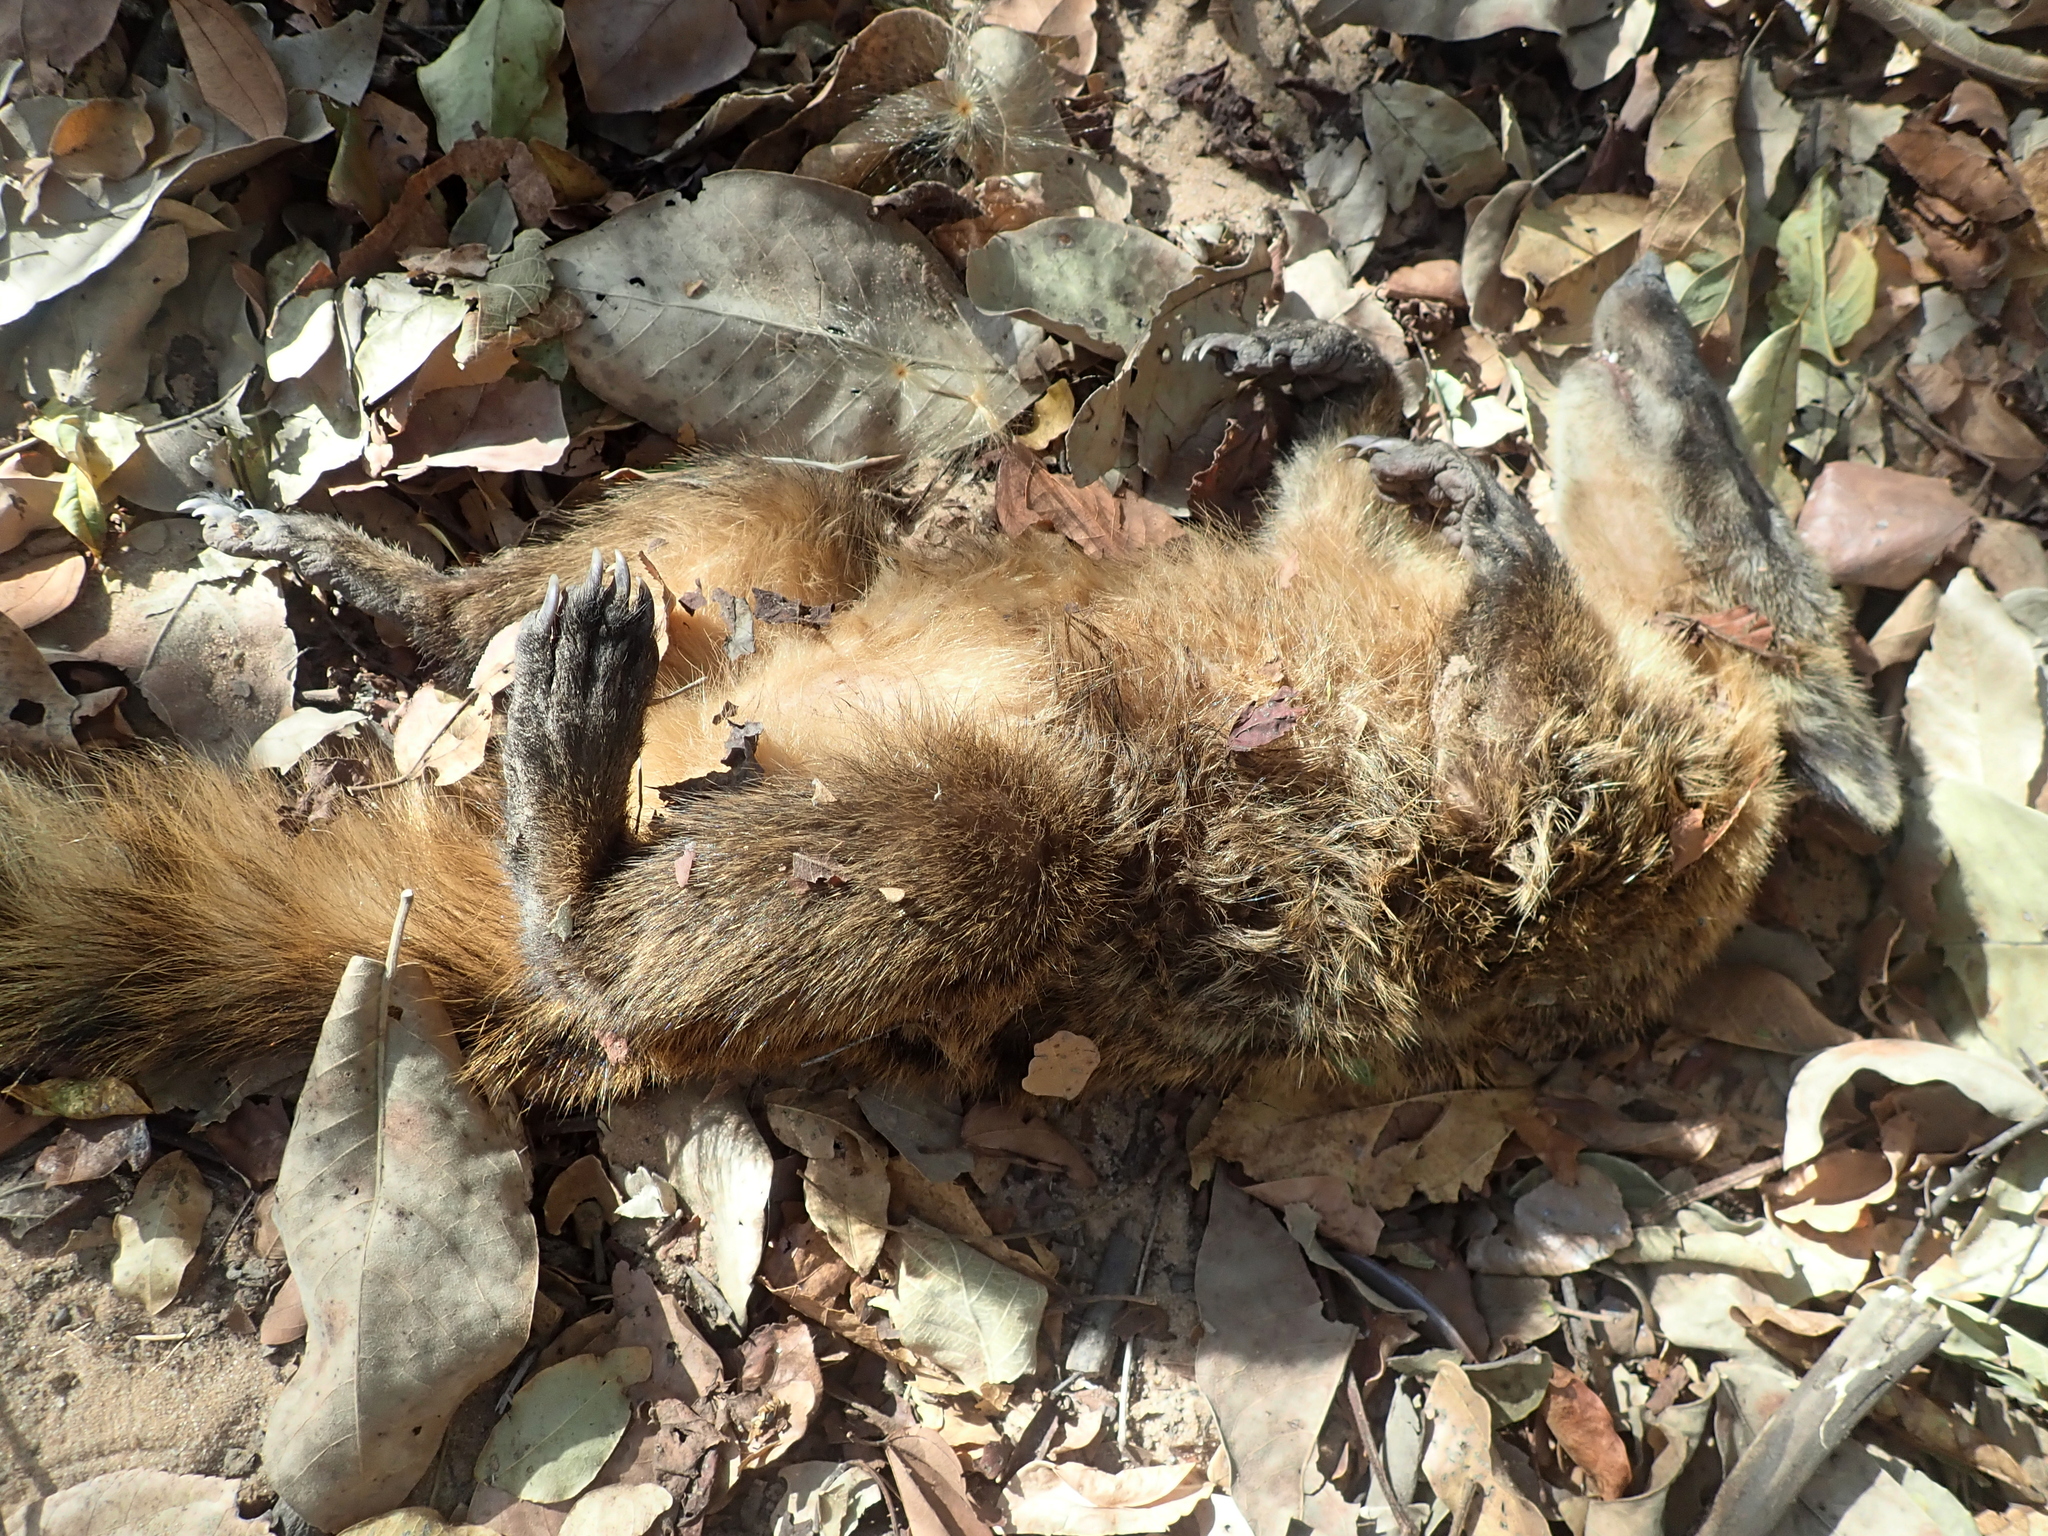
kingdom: Animalia
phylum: Chordata
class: Mammalia
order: Carnivora
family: Procyonidae
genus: Nasua
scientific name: Nasua nasua
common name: South american coati
